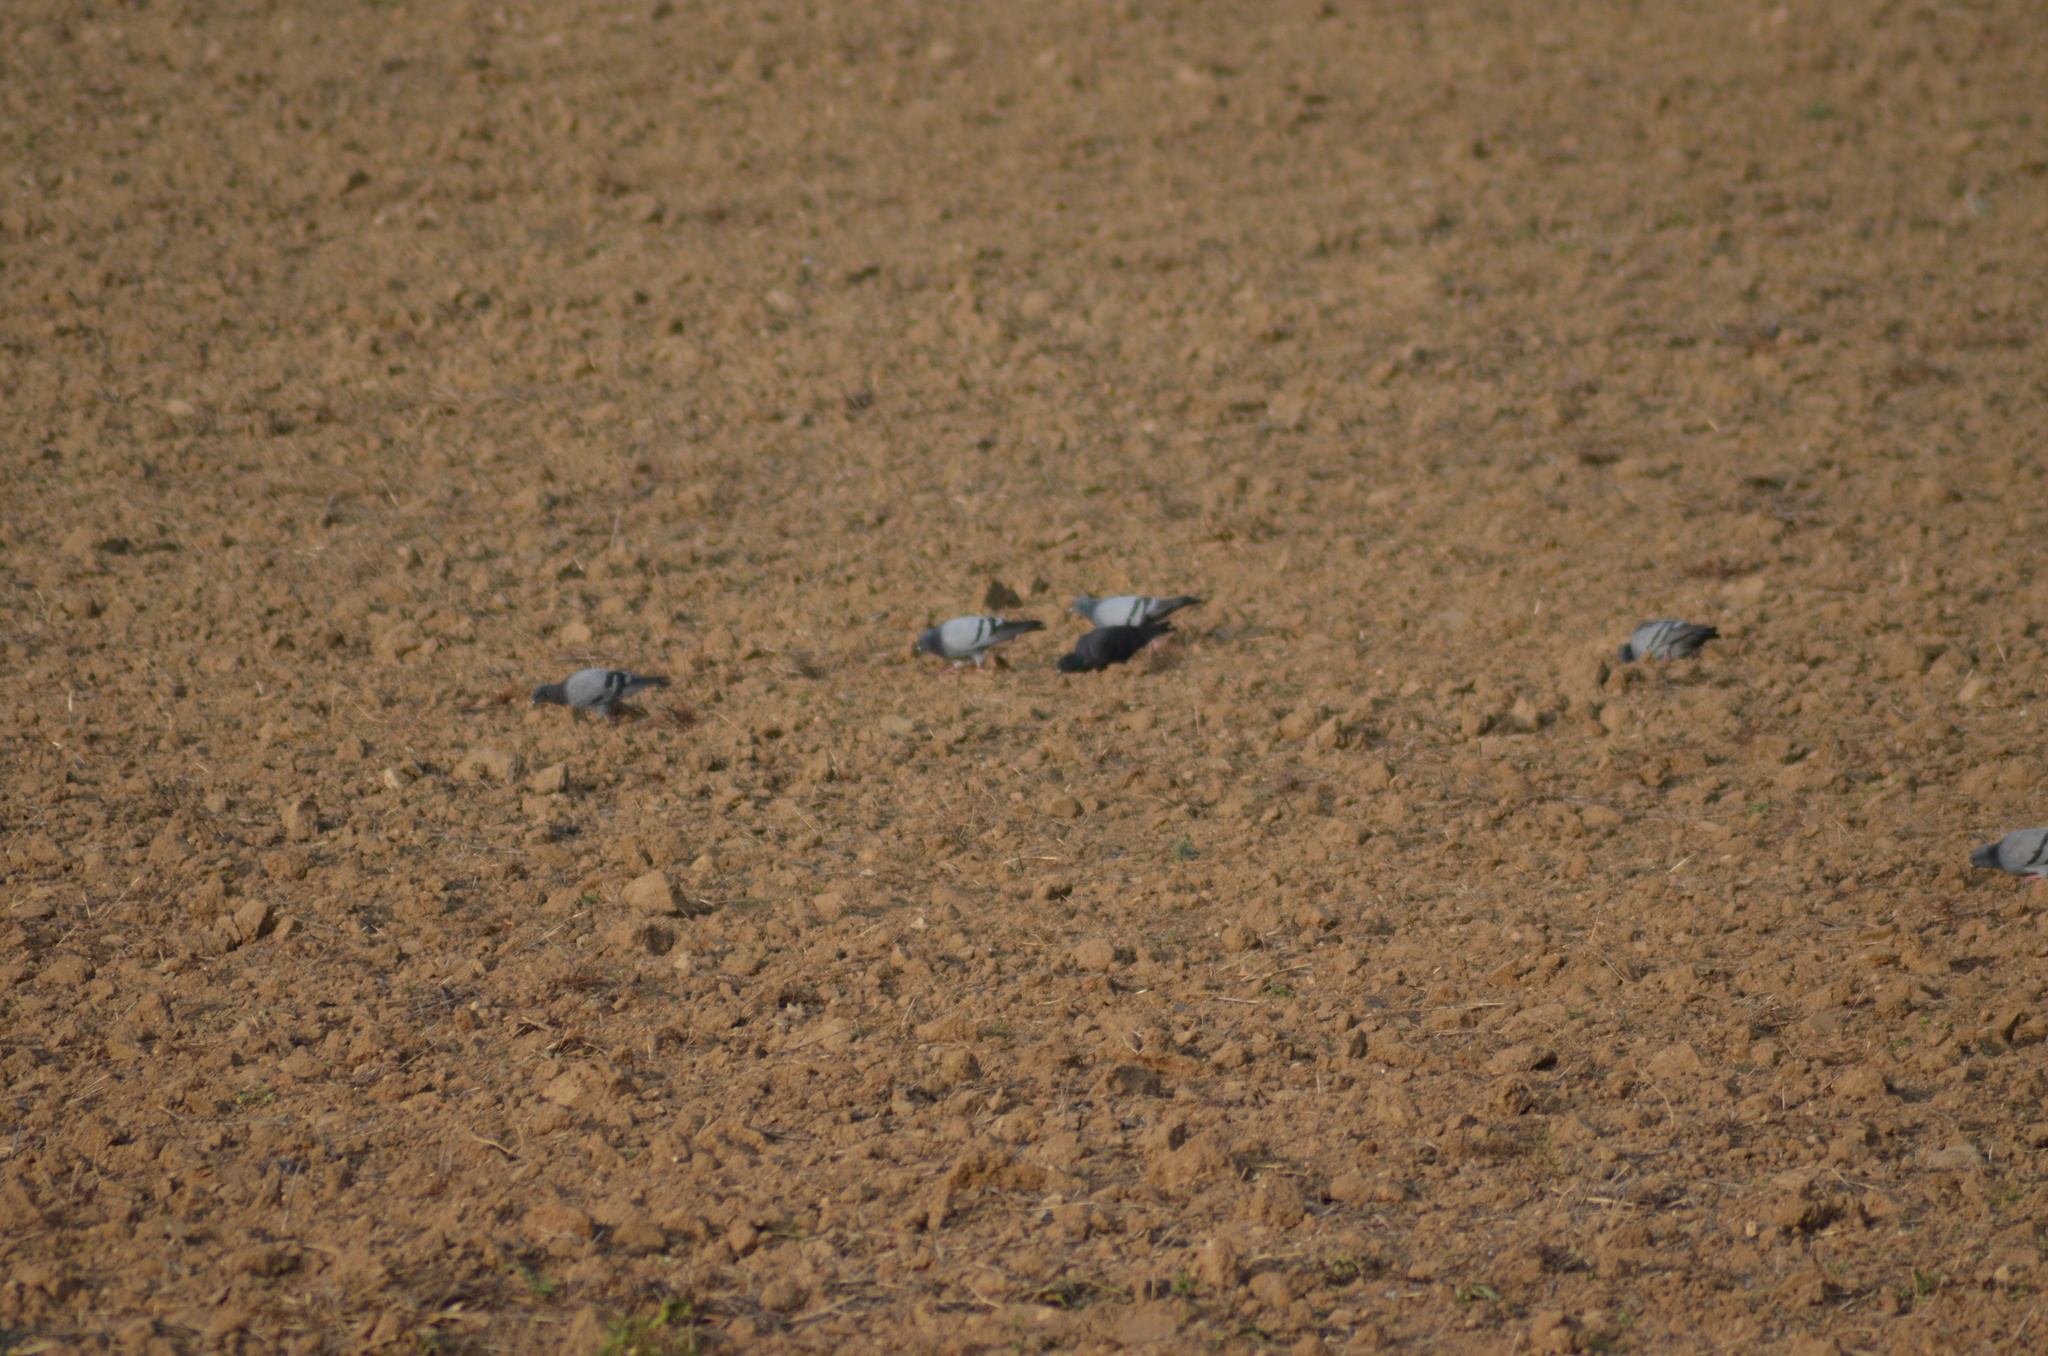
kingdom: Animalia
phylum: Chordata
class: Aves
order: Columbiformes
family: Columbidae
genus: Columba
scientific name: Columba livia
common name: Rock pigeon
